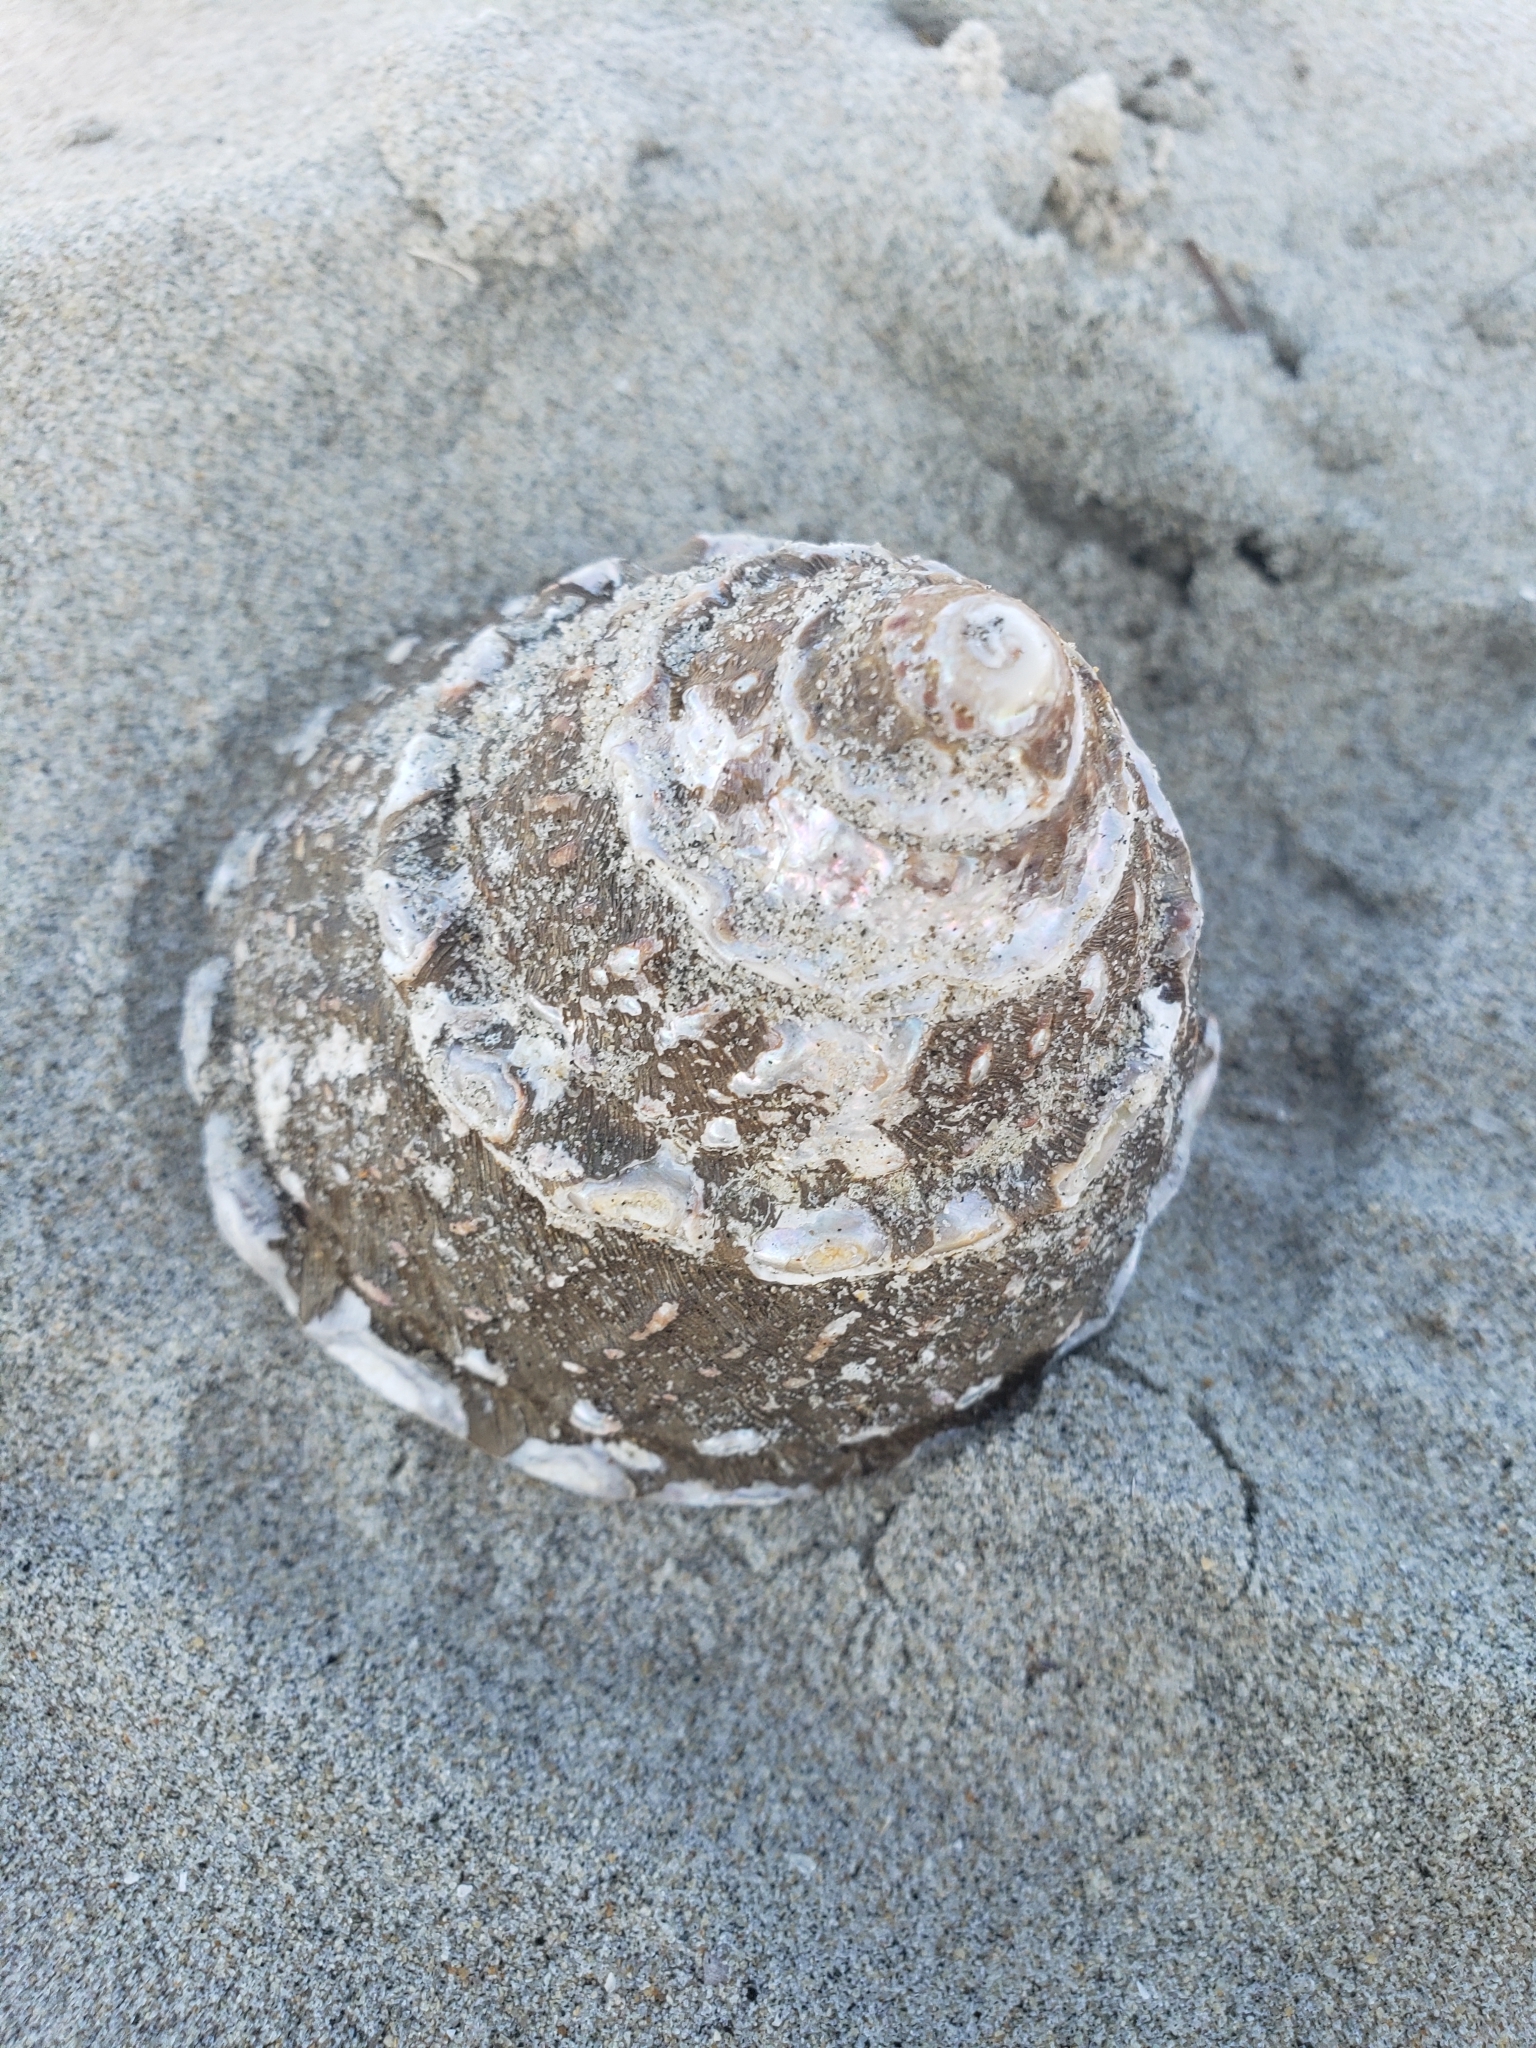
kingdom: Animalia
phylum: Mollusca
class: Gastropoda
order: Trochida
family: Turbinidae
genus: Megastraea
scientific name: Megastraea undosa
